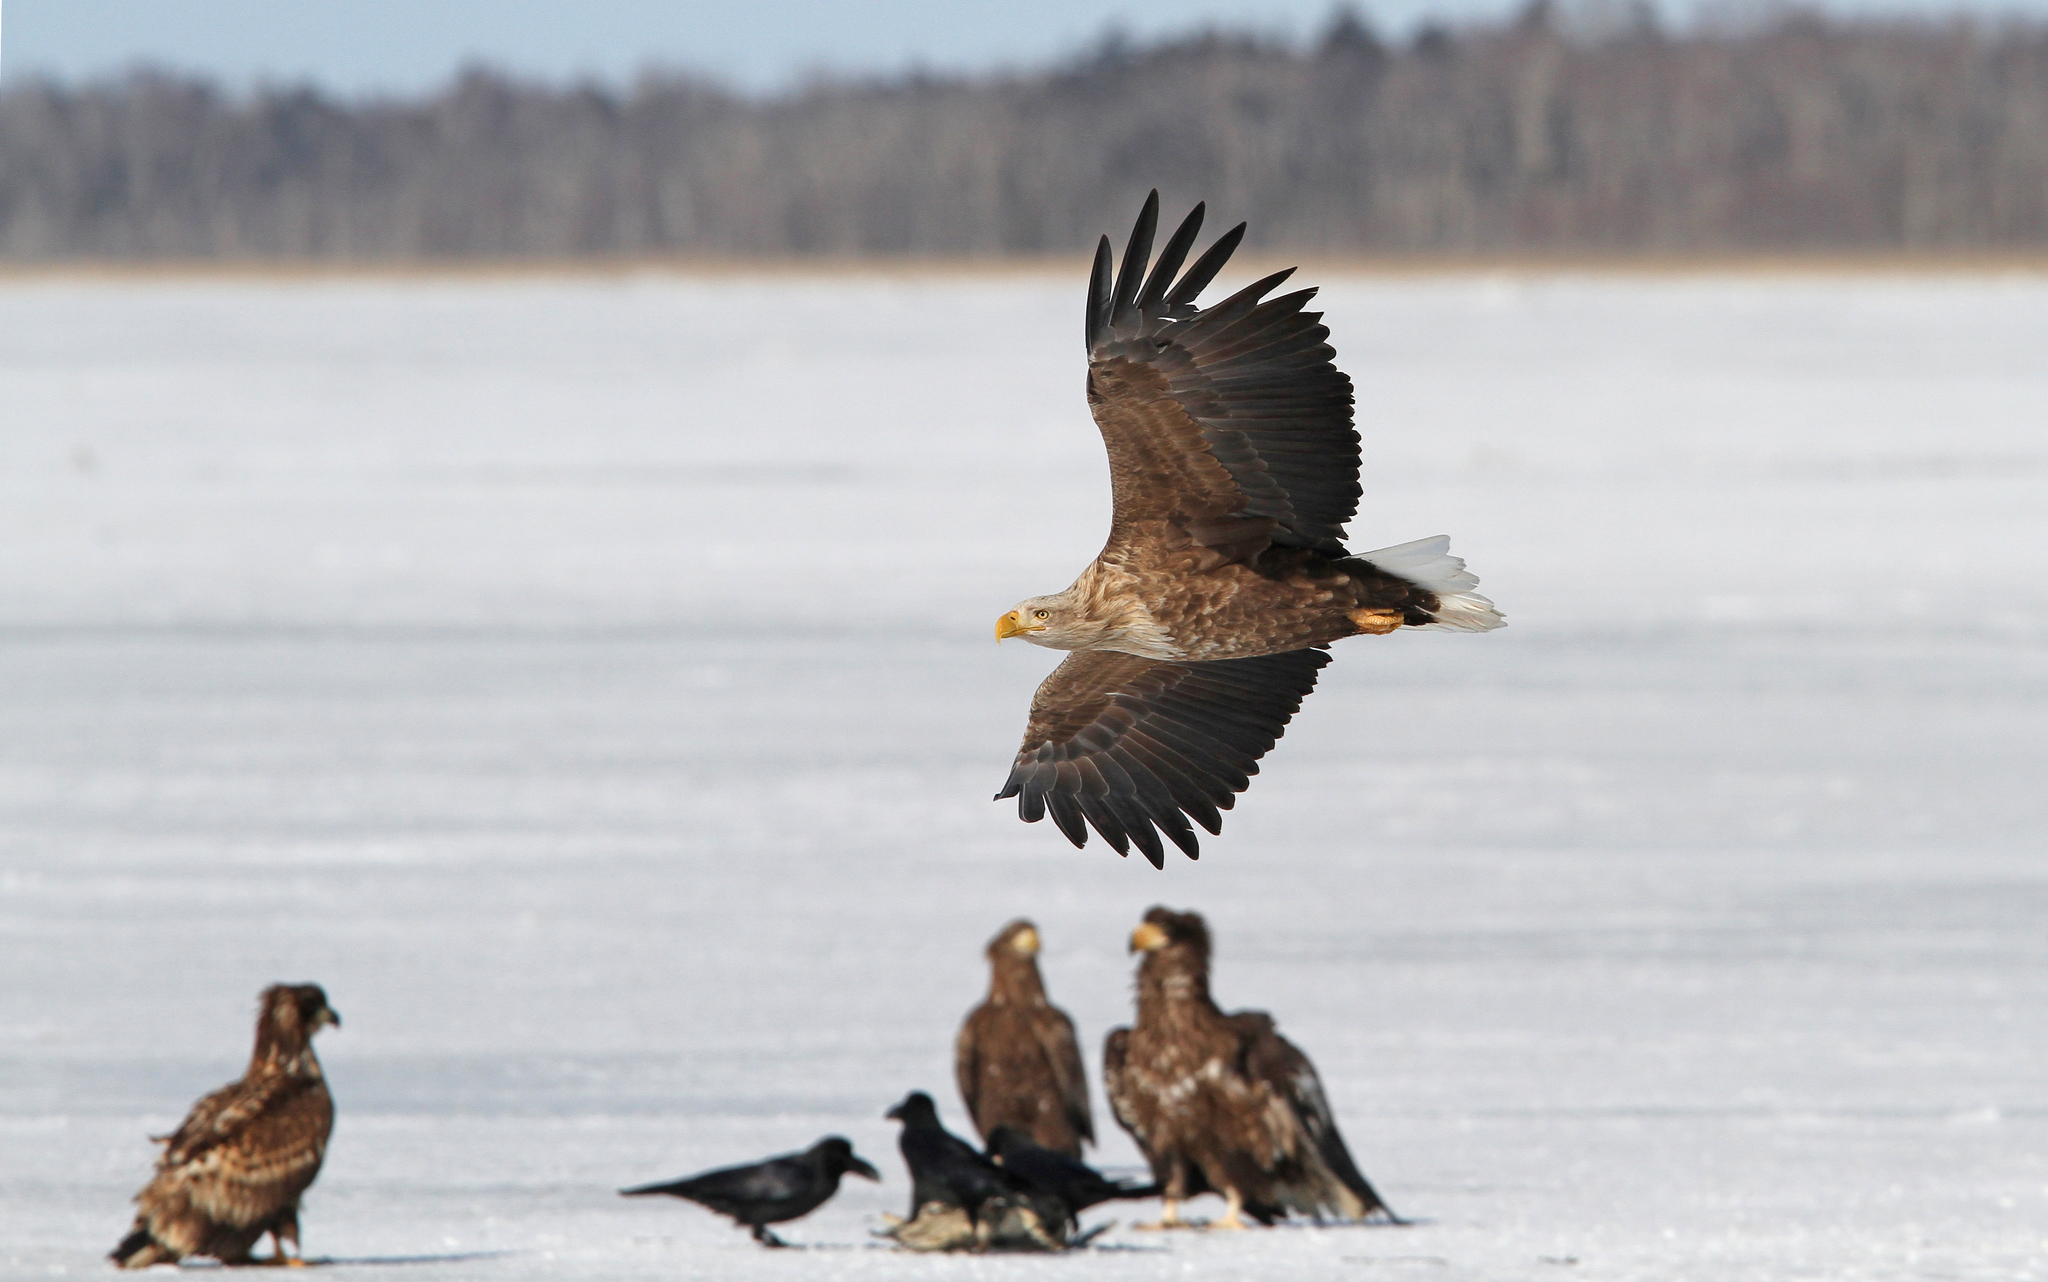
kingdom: Animalia
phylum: Chordata
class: Aves
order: Accipitriformes
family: Accipitridae
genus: Haliaeetus
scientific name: Haliaeetus albicilla
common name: White-tailed eagle
